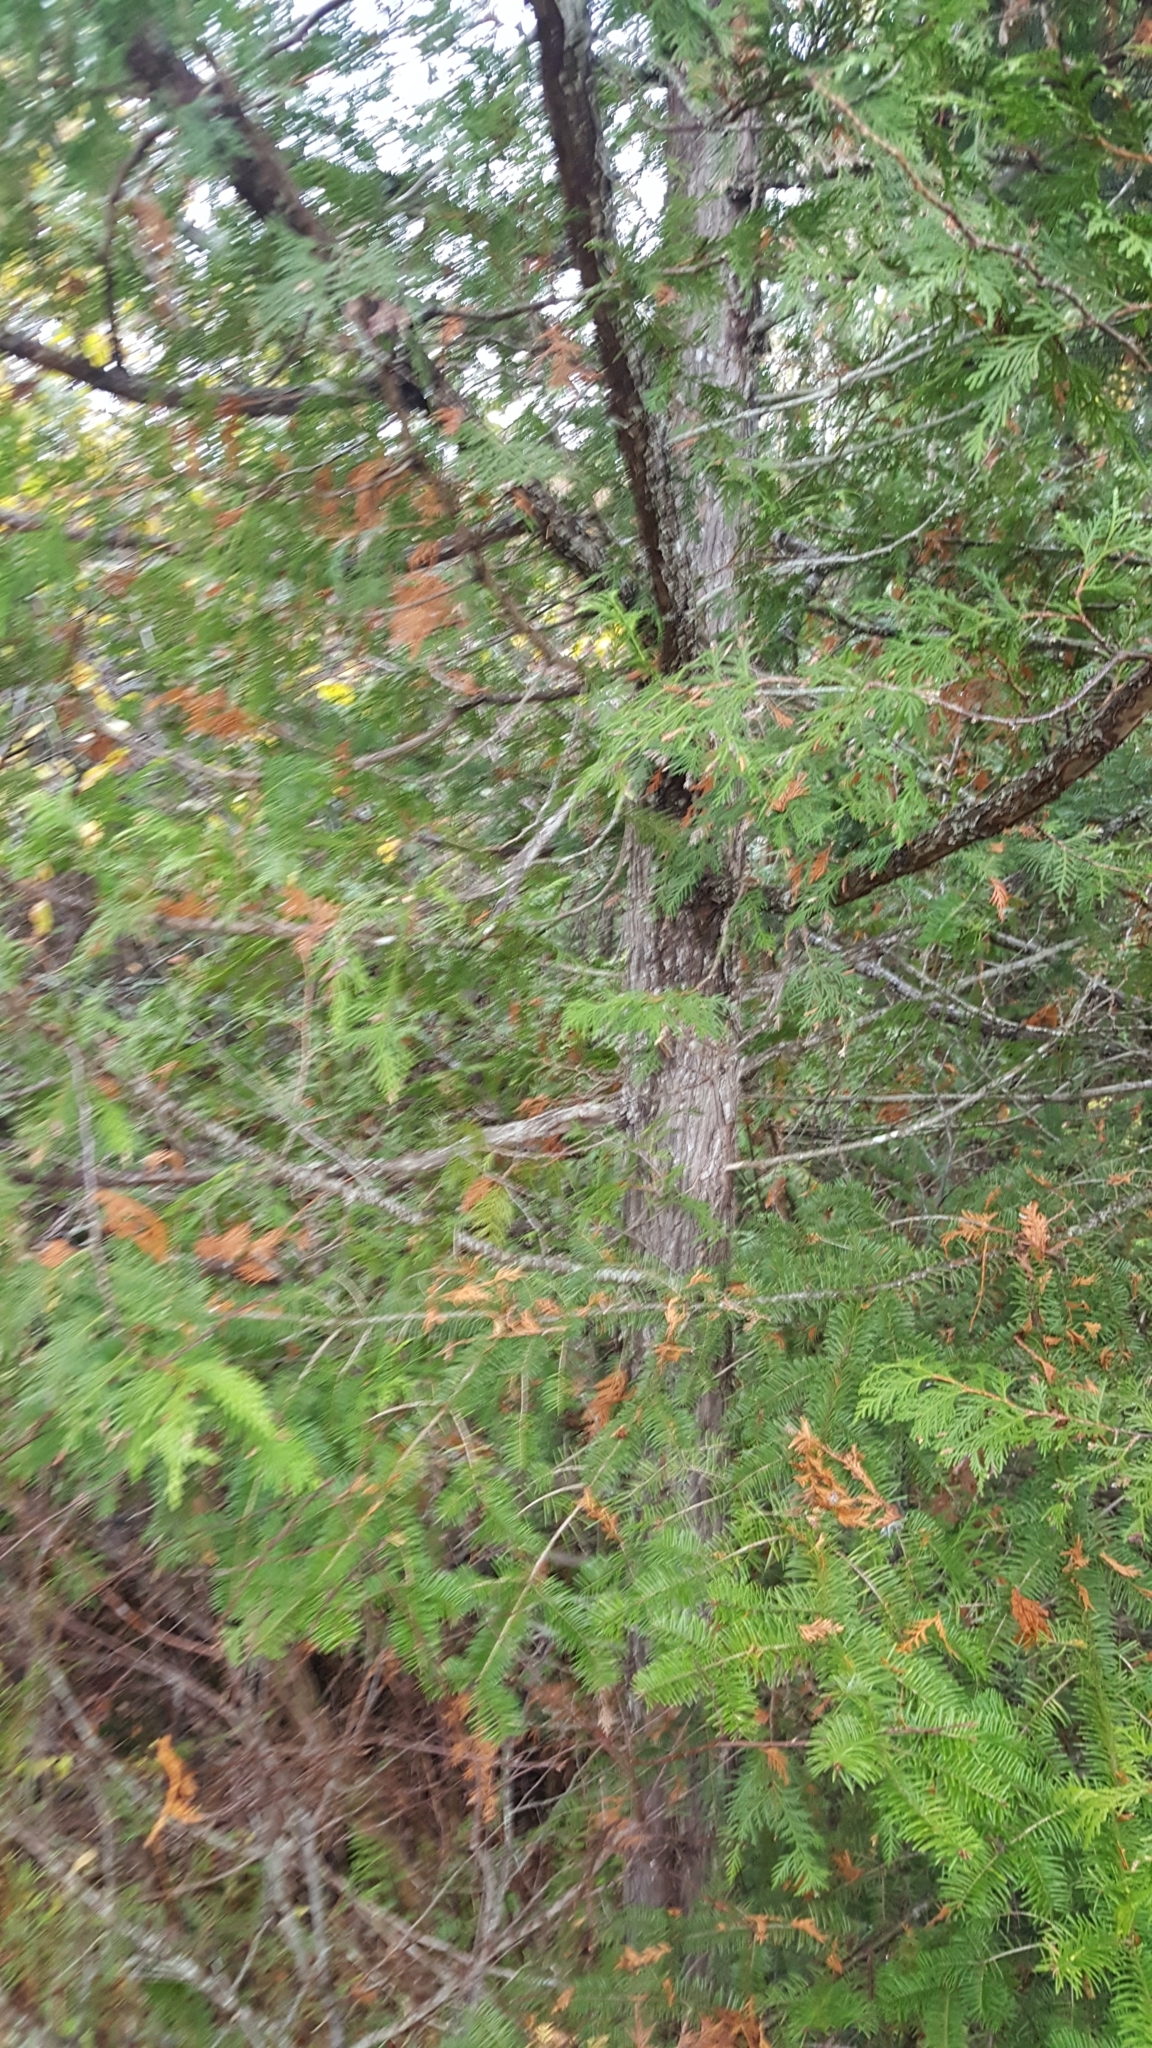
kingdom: Plantae
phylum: Tracheophyta
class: Pinopsida
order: Pinales
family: Cupressaceae
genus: Thuja
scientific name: Thuja occidentalis
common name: Northern white-cedar
